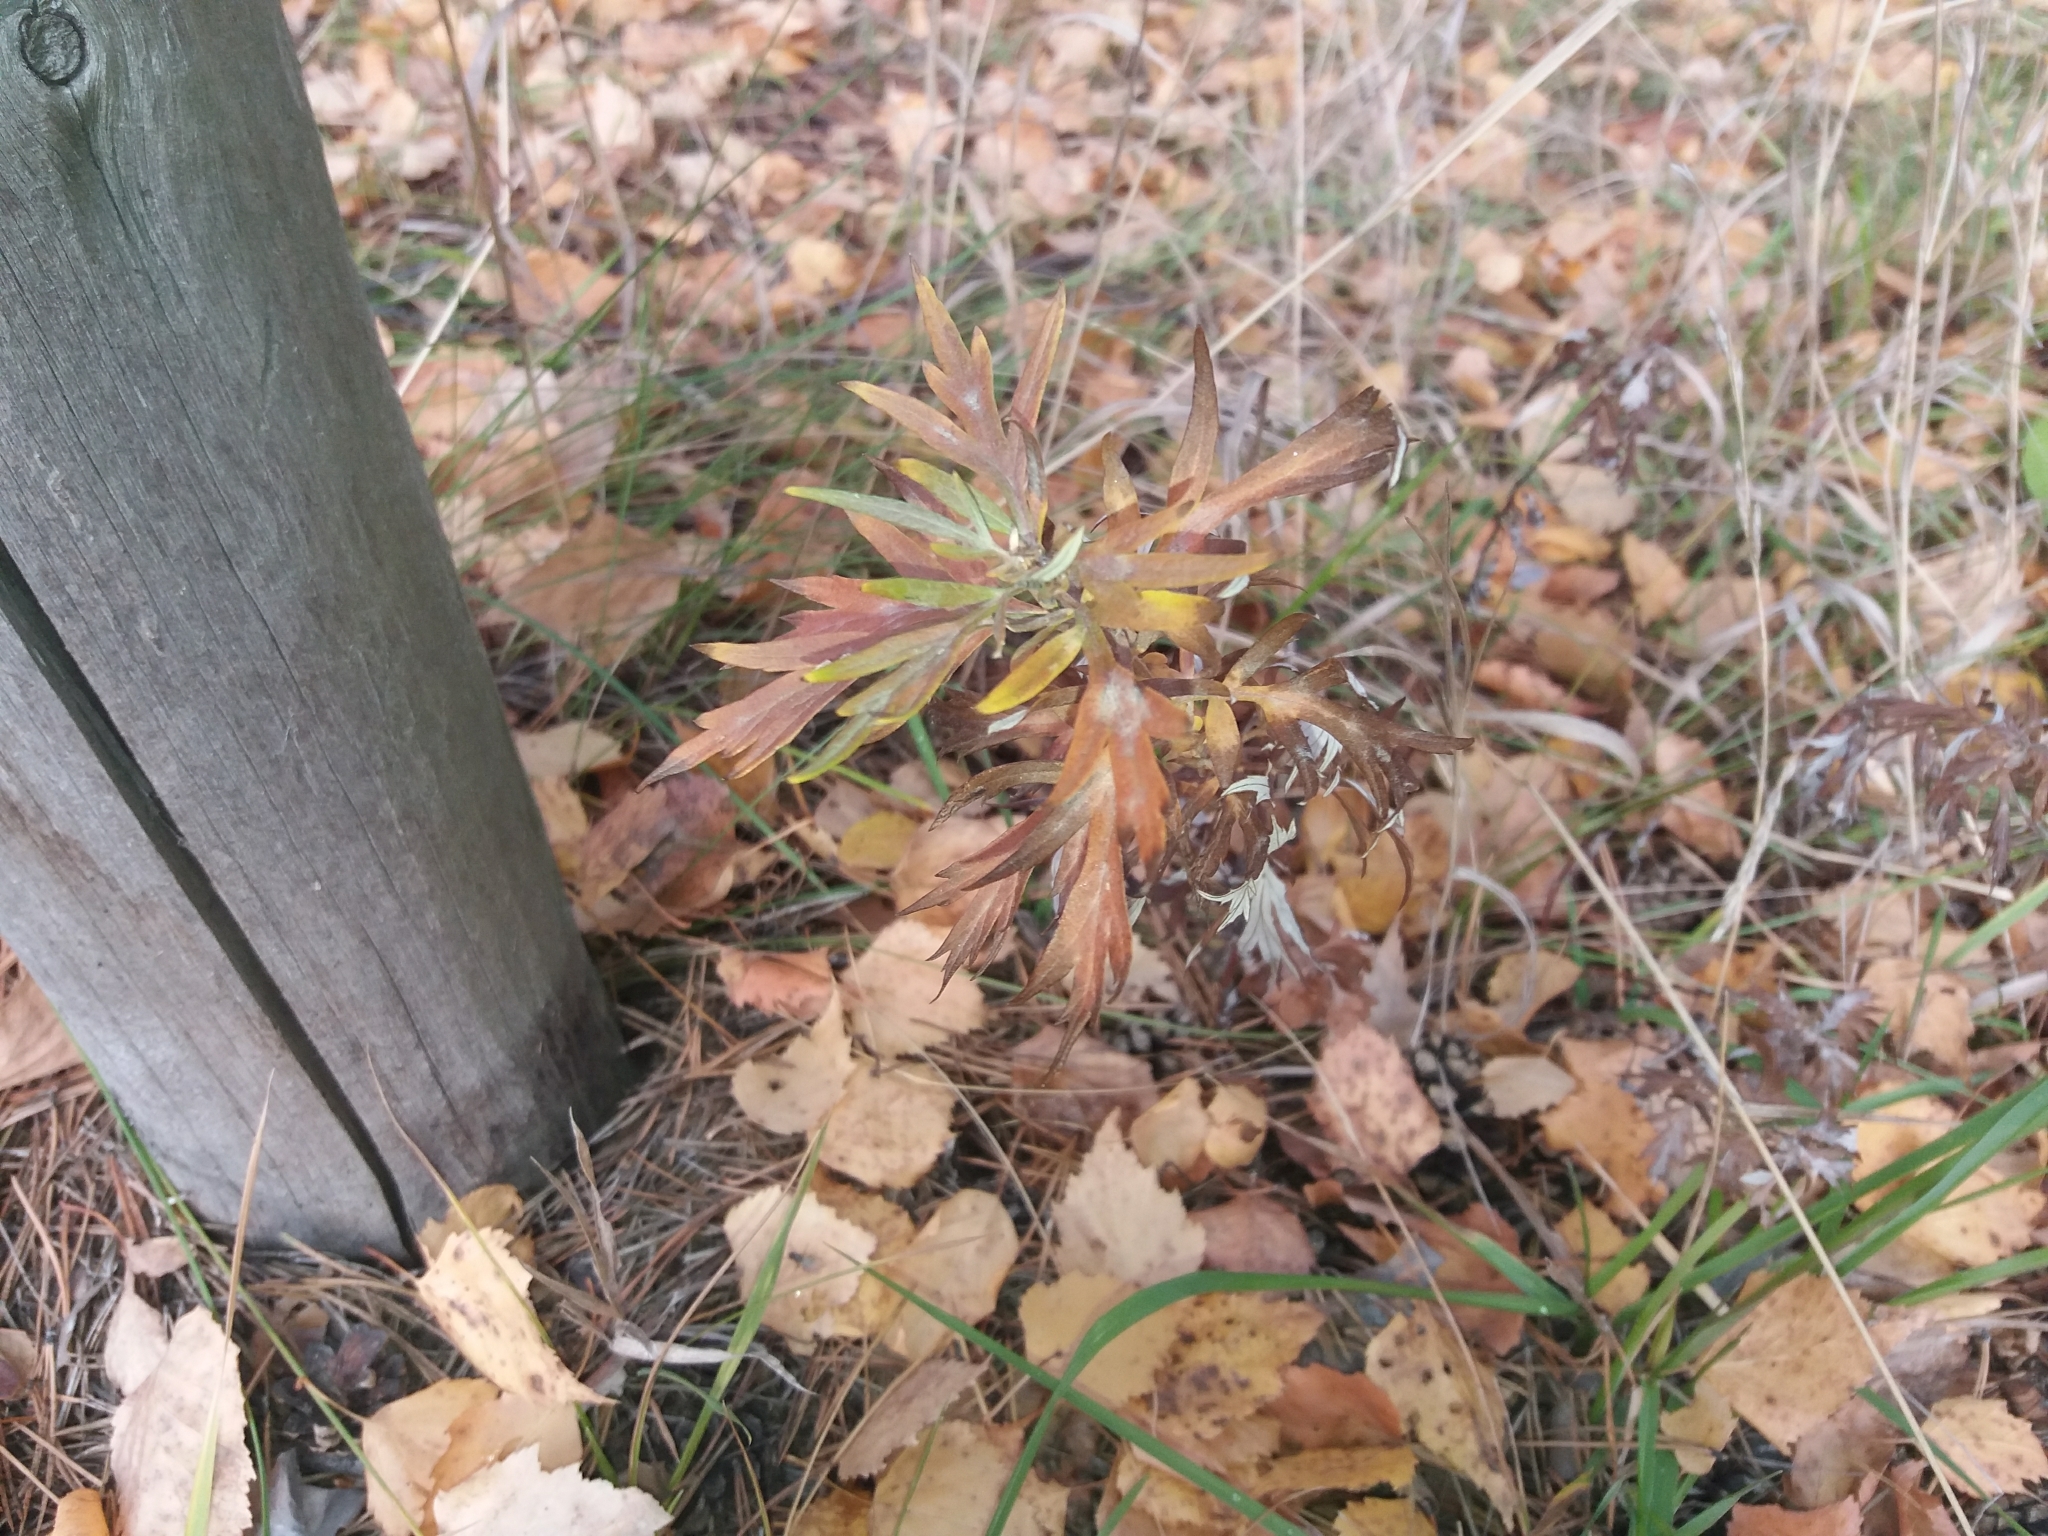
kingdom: Plantae
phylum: Tracheophyta
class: Magnoliopsida
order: Asterales
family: Asteraceae
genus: Artemisia
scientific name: Artemisia vulgaris
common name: Mugwort
